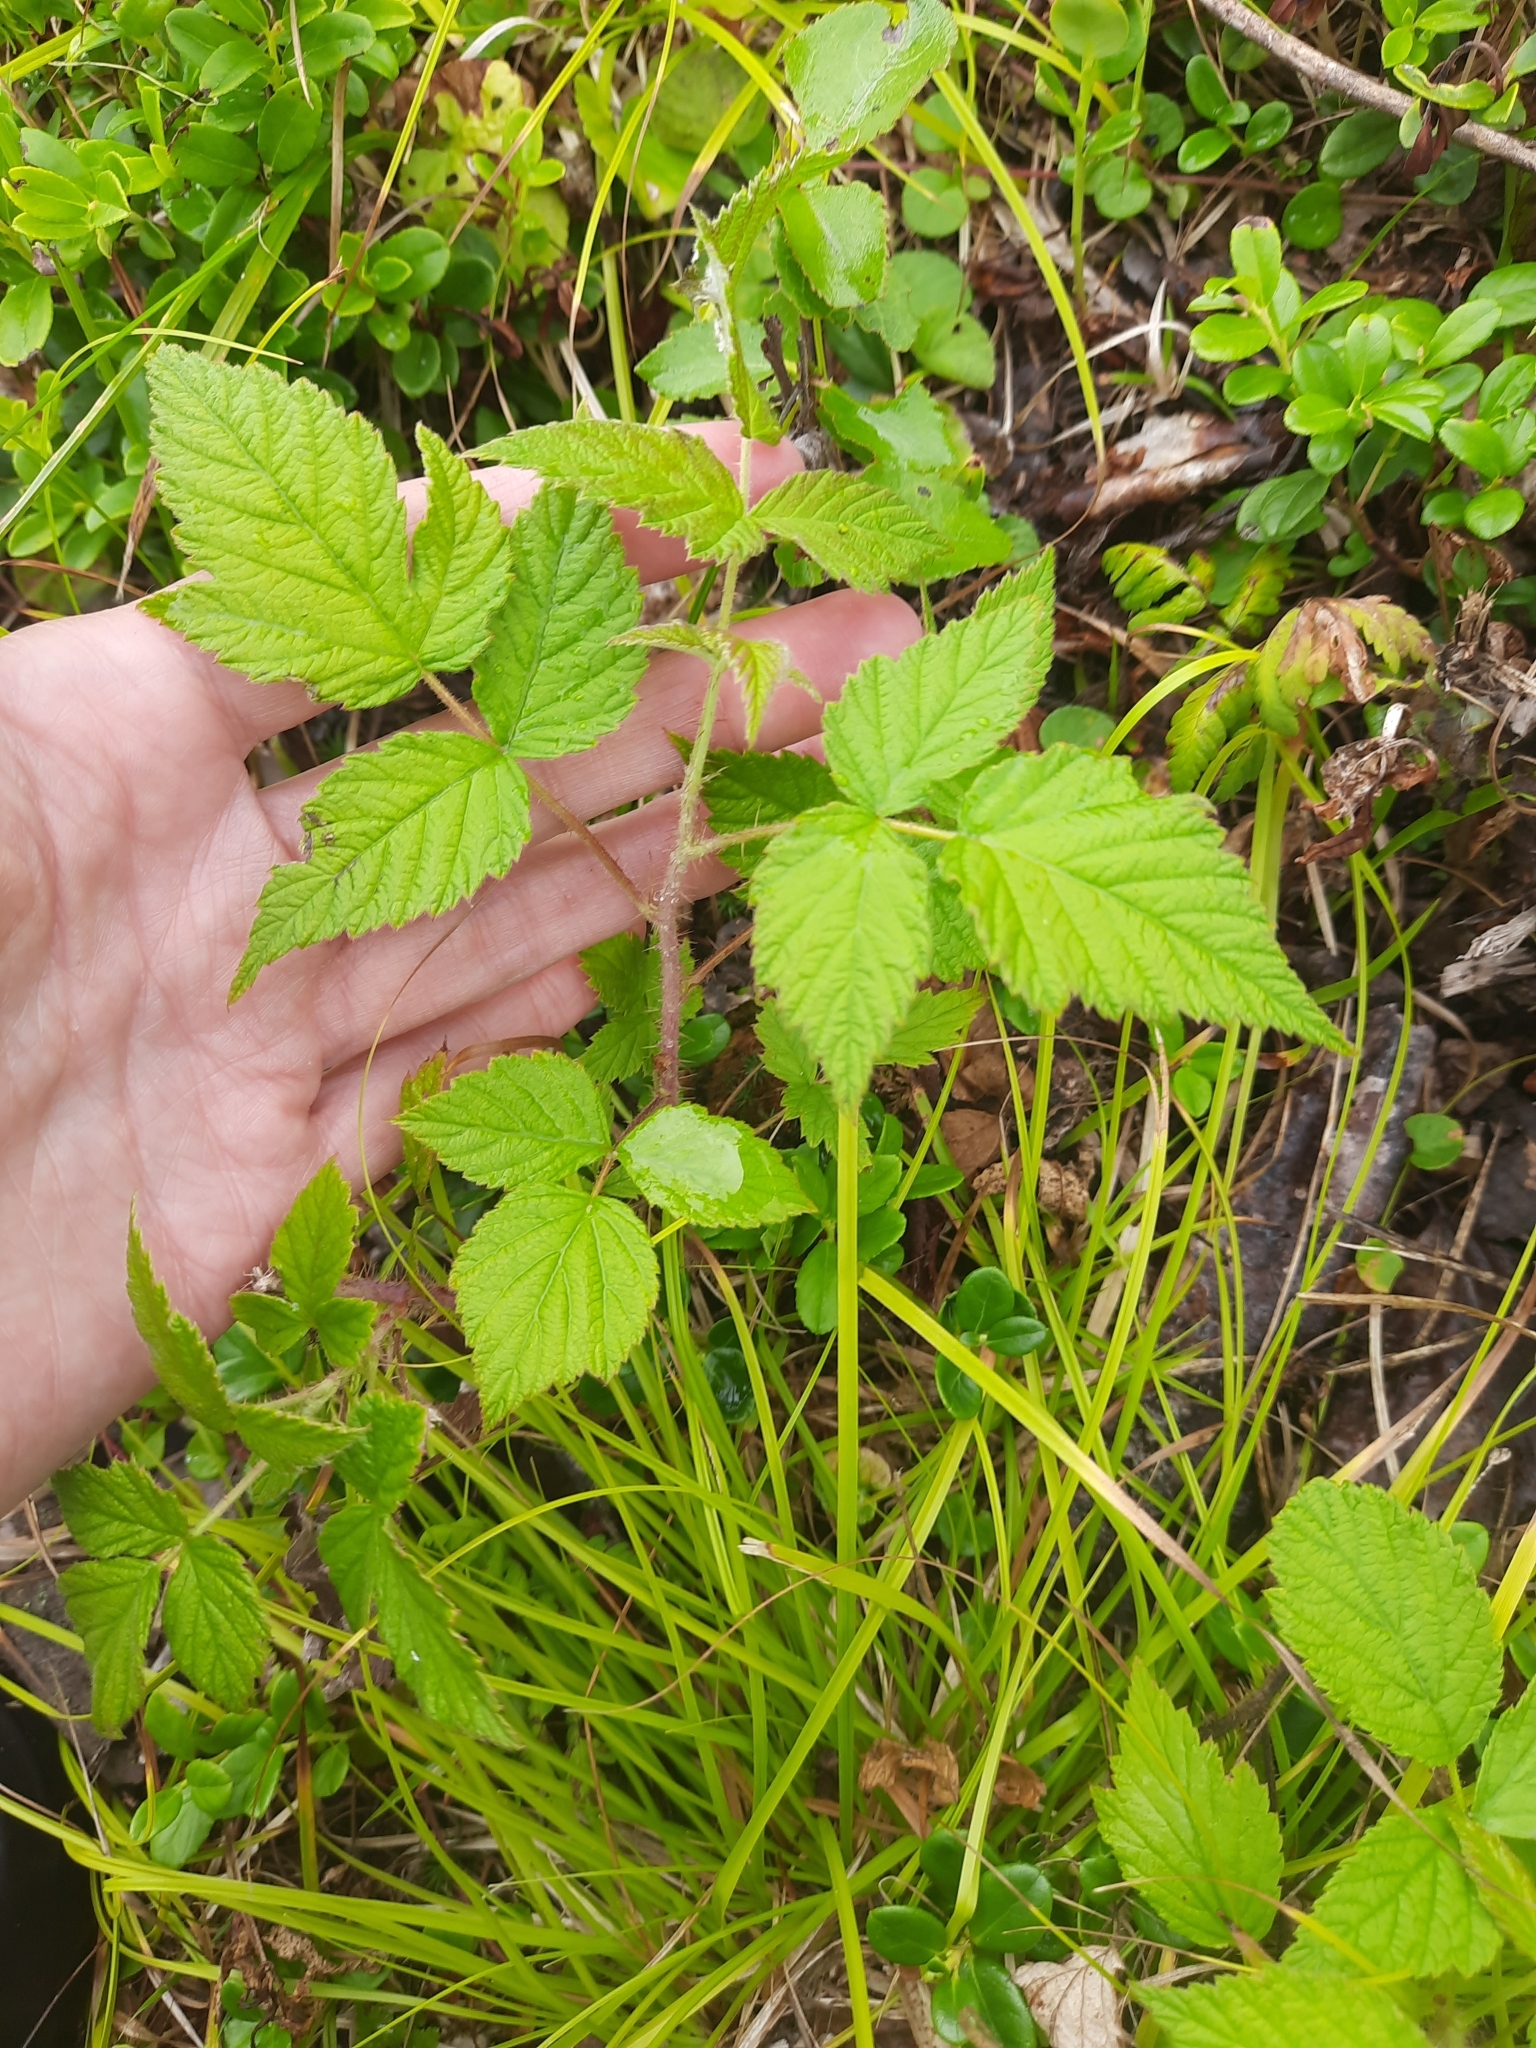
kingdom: Plantae
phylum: Tracheophyta
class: Magnoliopsida
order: Rosales
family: Rosaceae
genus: Rubus
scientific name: Rubus sachalinensis
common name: Red raspberry
